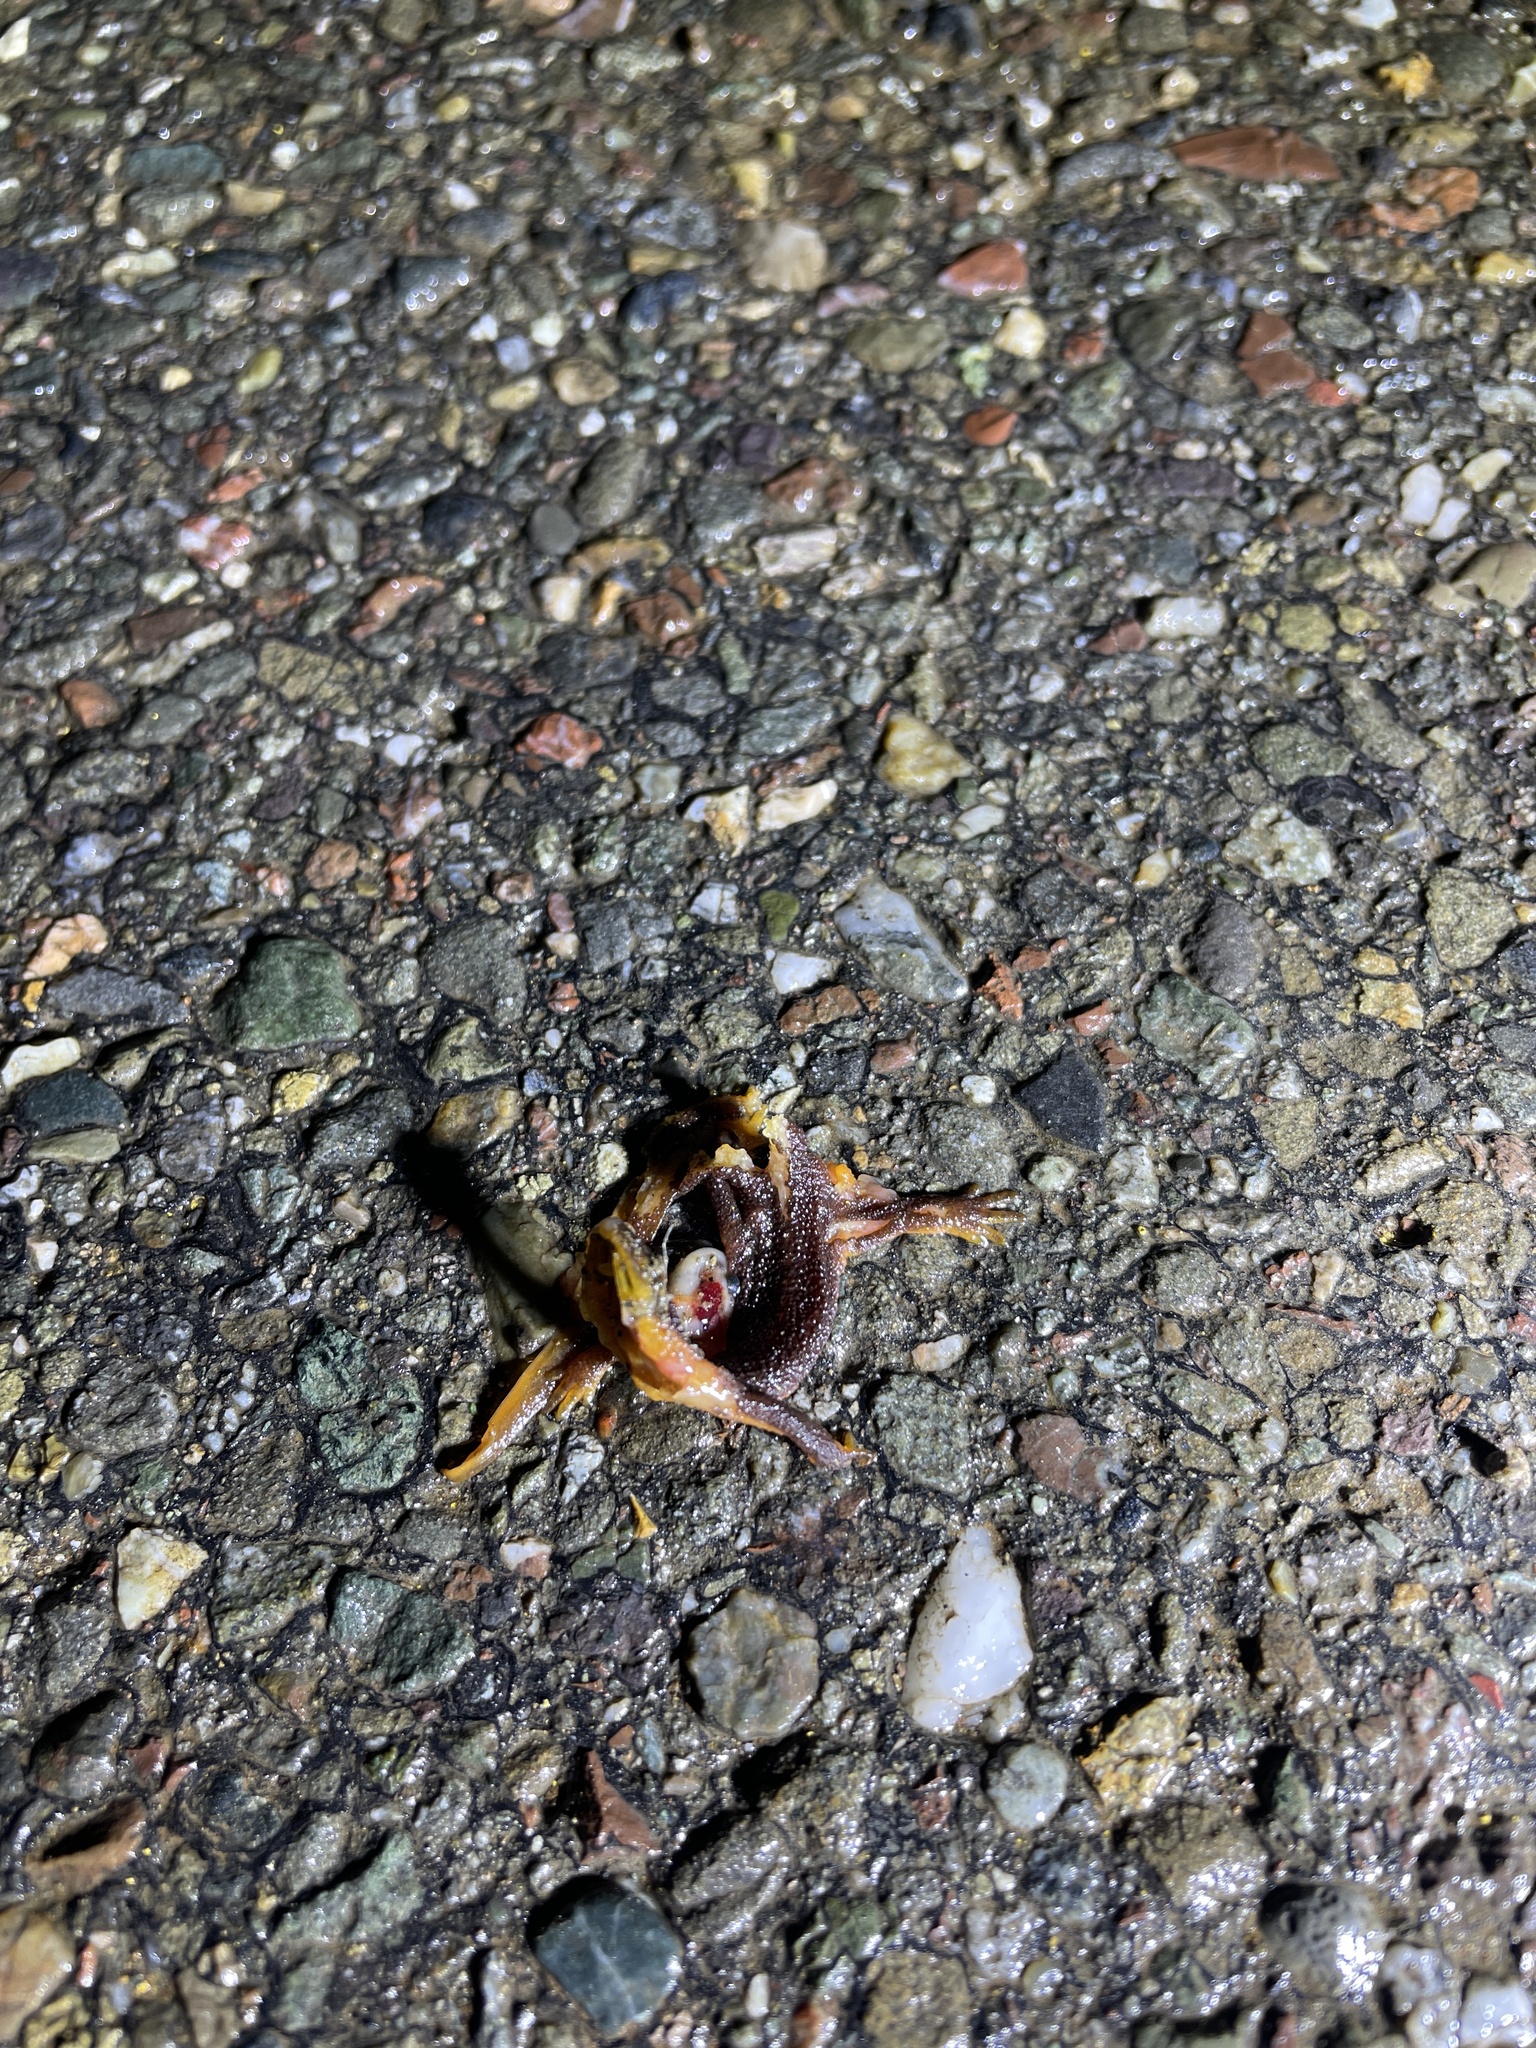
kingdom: Animalia
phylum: Chordata
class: Amphibia
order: Caudata
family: Salamandridae
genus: Taricha
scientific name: Taricha
